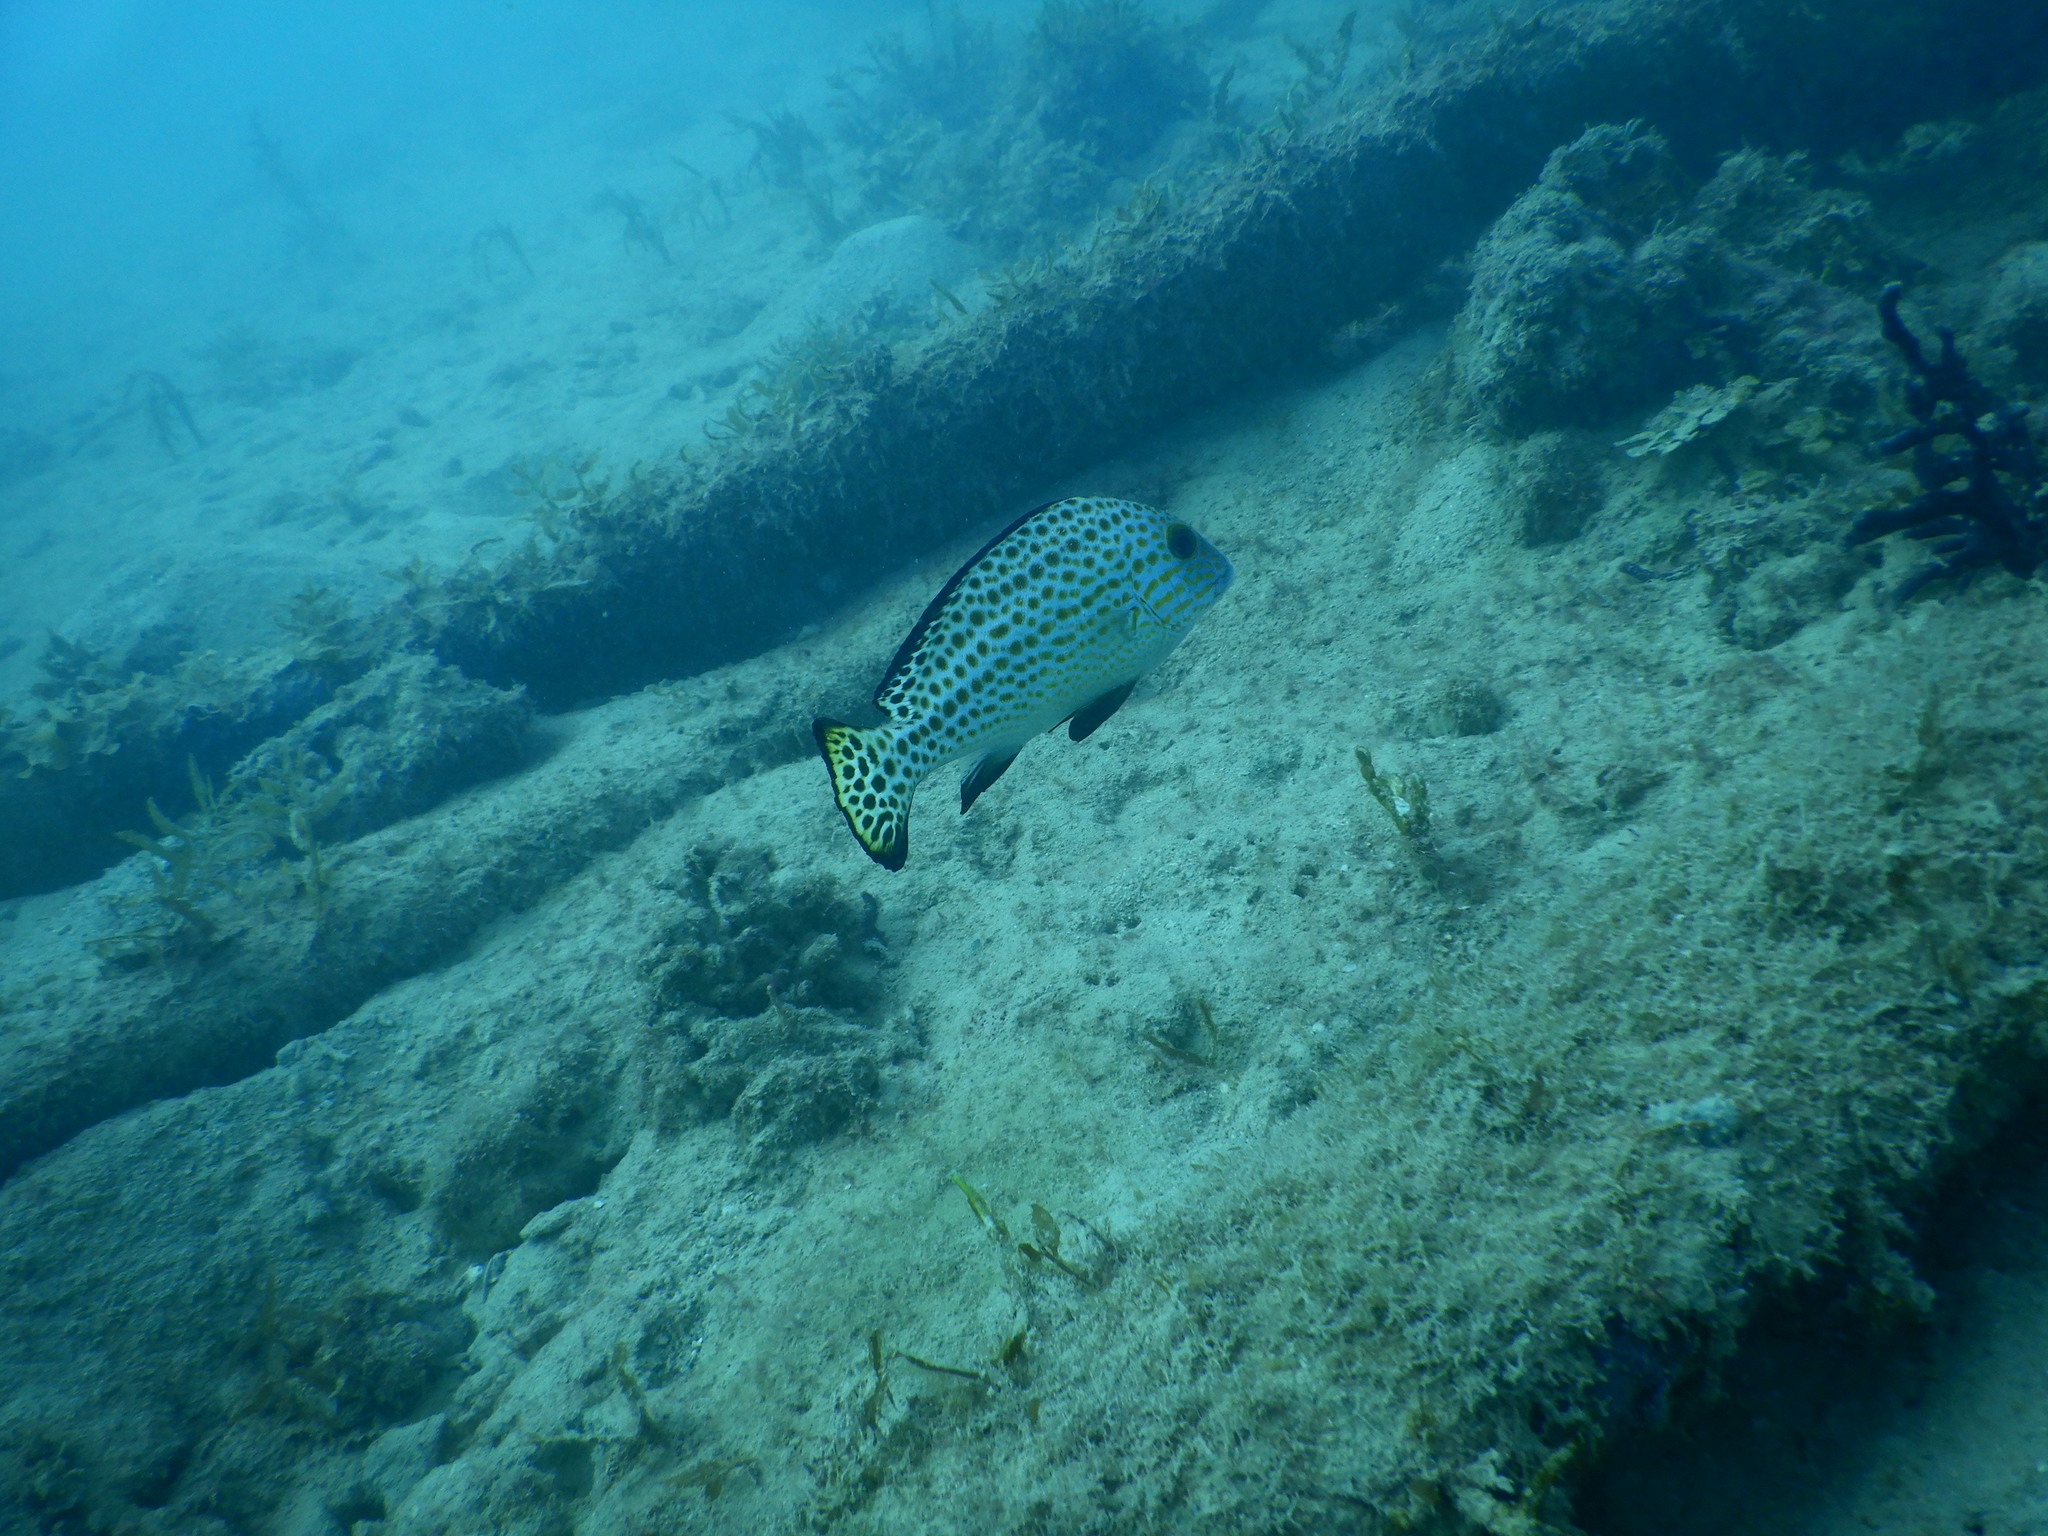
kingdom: Animalia
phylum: Chordata
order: Perciformes
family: Haemulidae
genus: Diagramma
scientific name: Diagramma pictum
